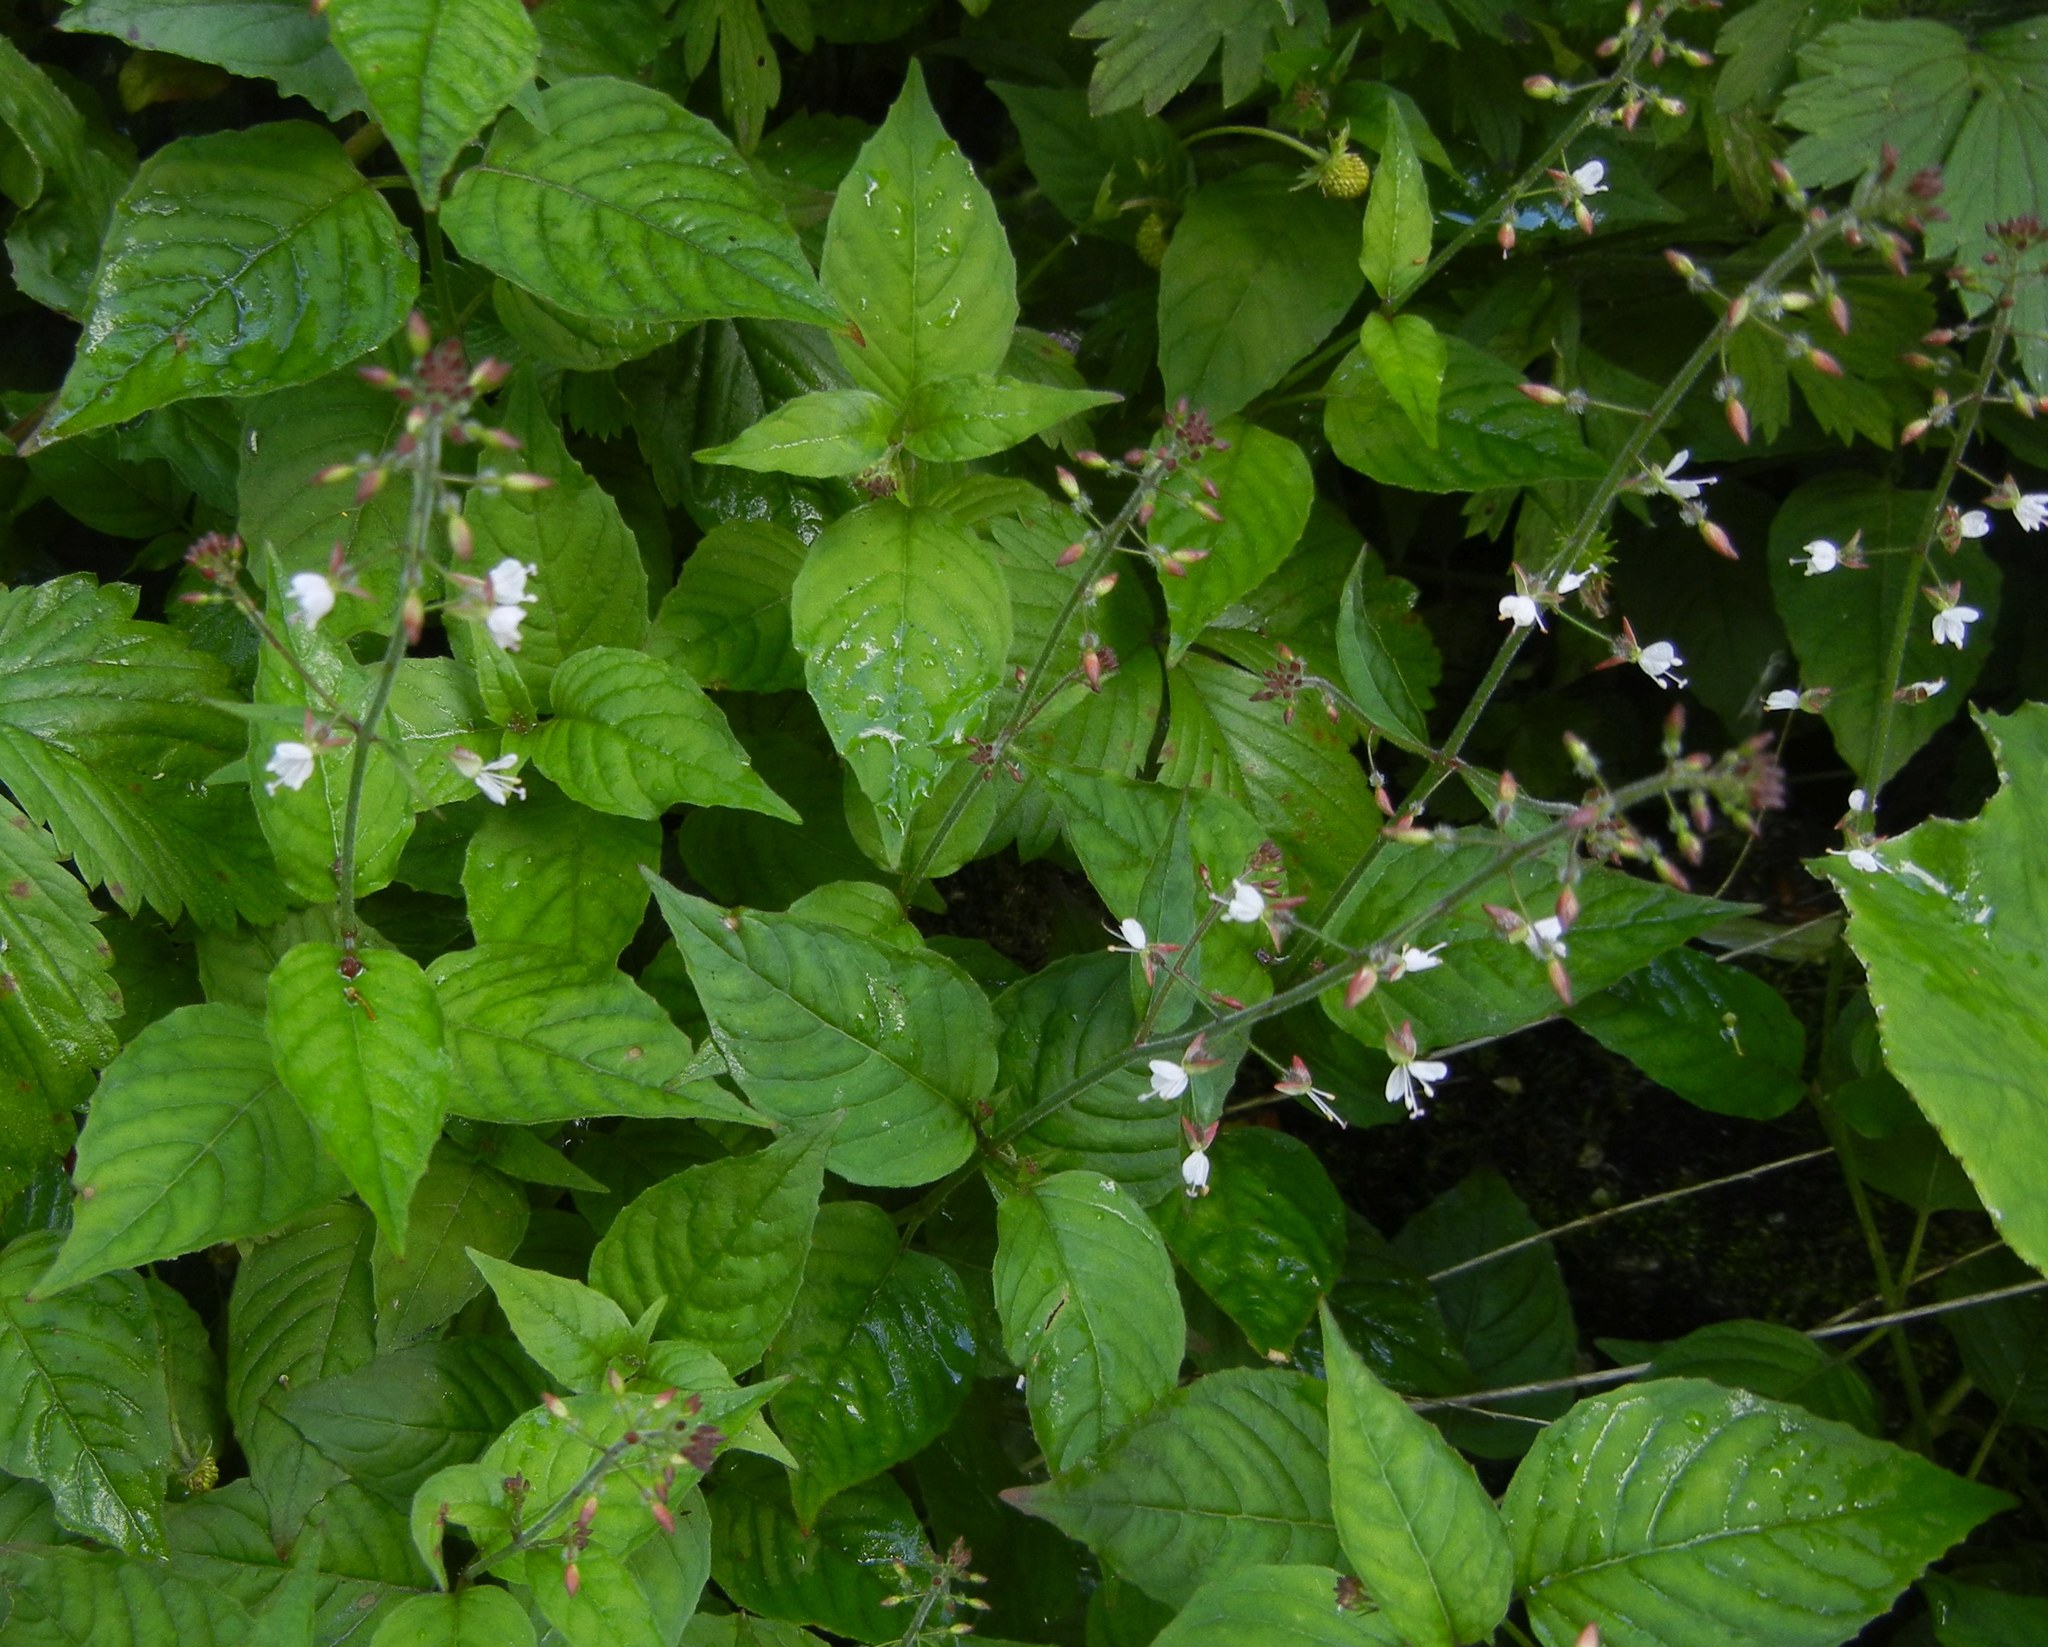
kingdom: Plantae
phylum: Tracheophyta
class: Magnoliopsida
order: Myrtales
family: Onagraceae
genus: Circaea
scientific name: Circaea lutetiana
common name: Enchanter's-nightshade
